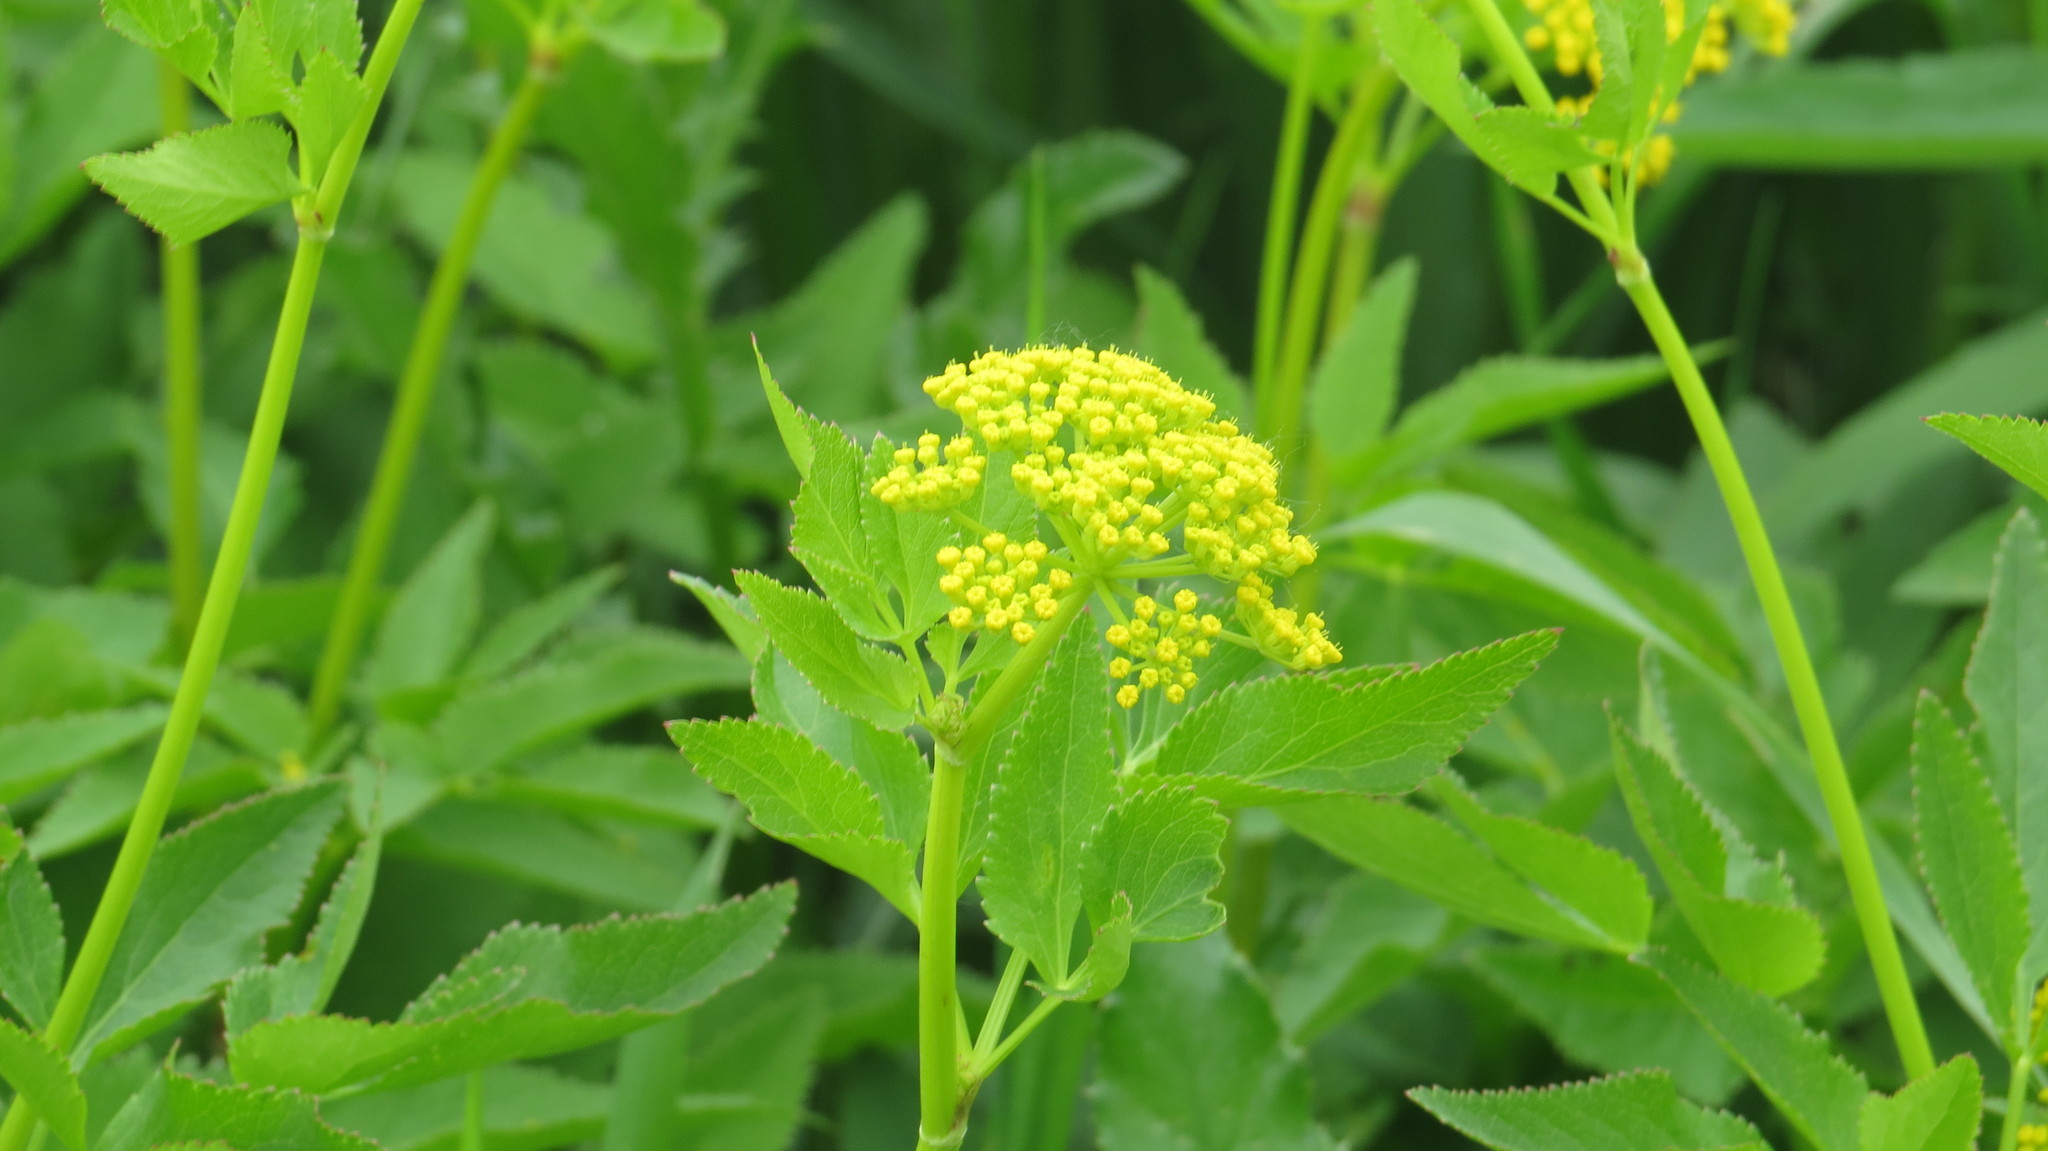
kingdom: Plantae
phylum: Tracheophyta
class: Magnoliopsida
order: Apiales
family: Apiaceae
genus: Zizia
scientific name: Zizia aurea
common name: Golden alexanders
